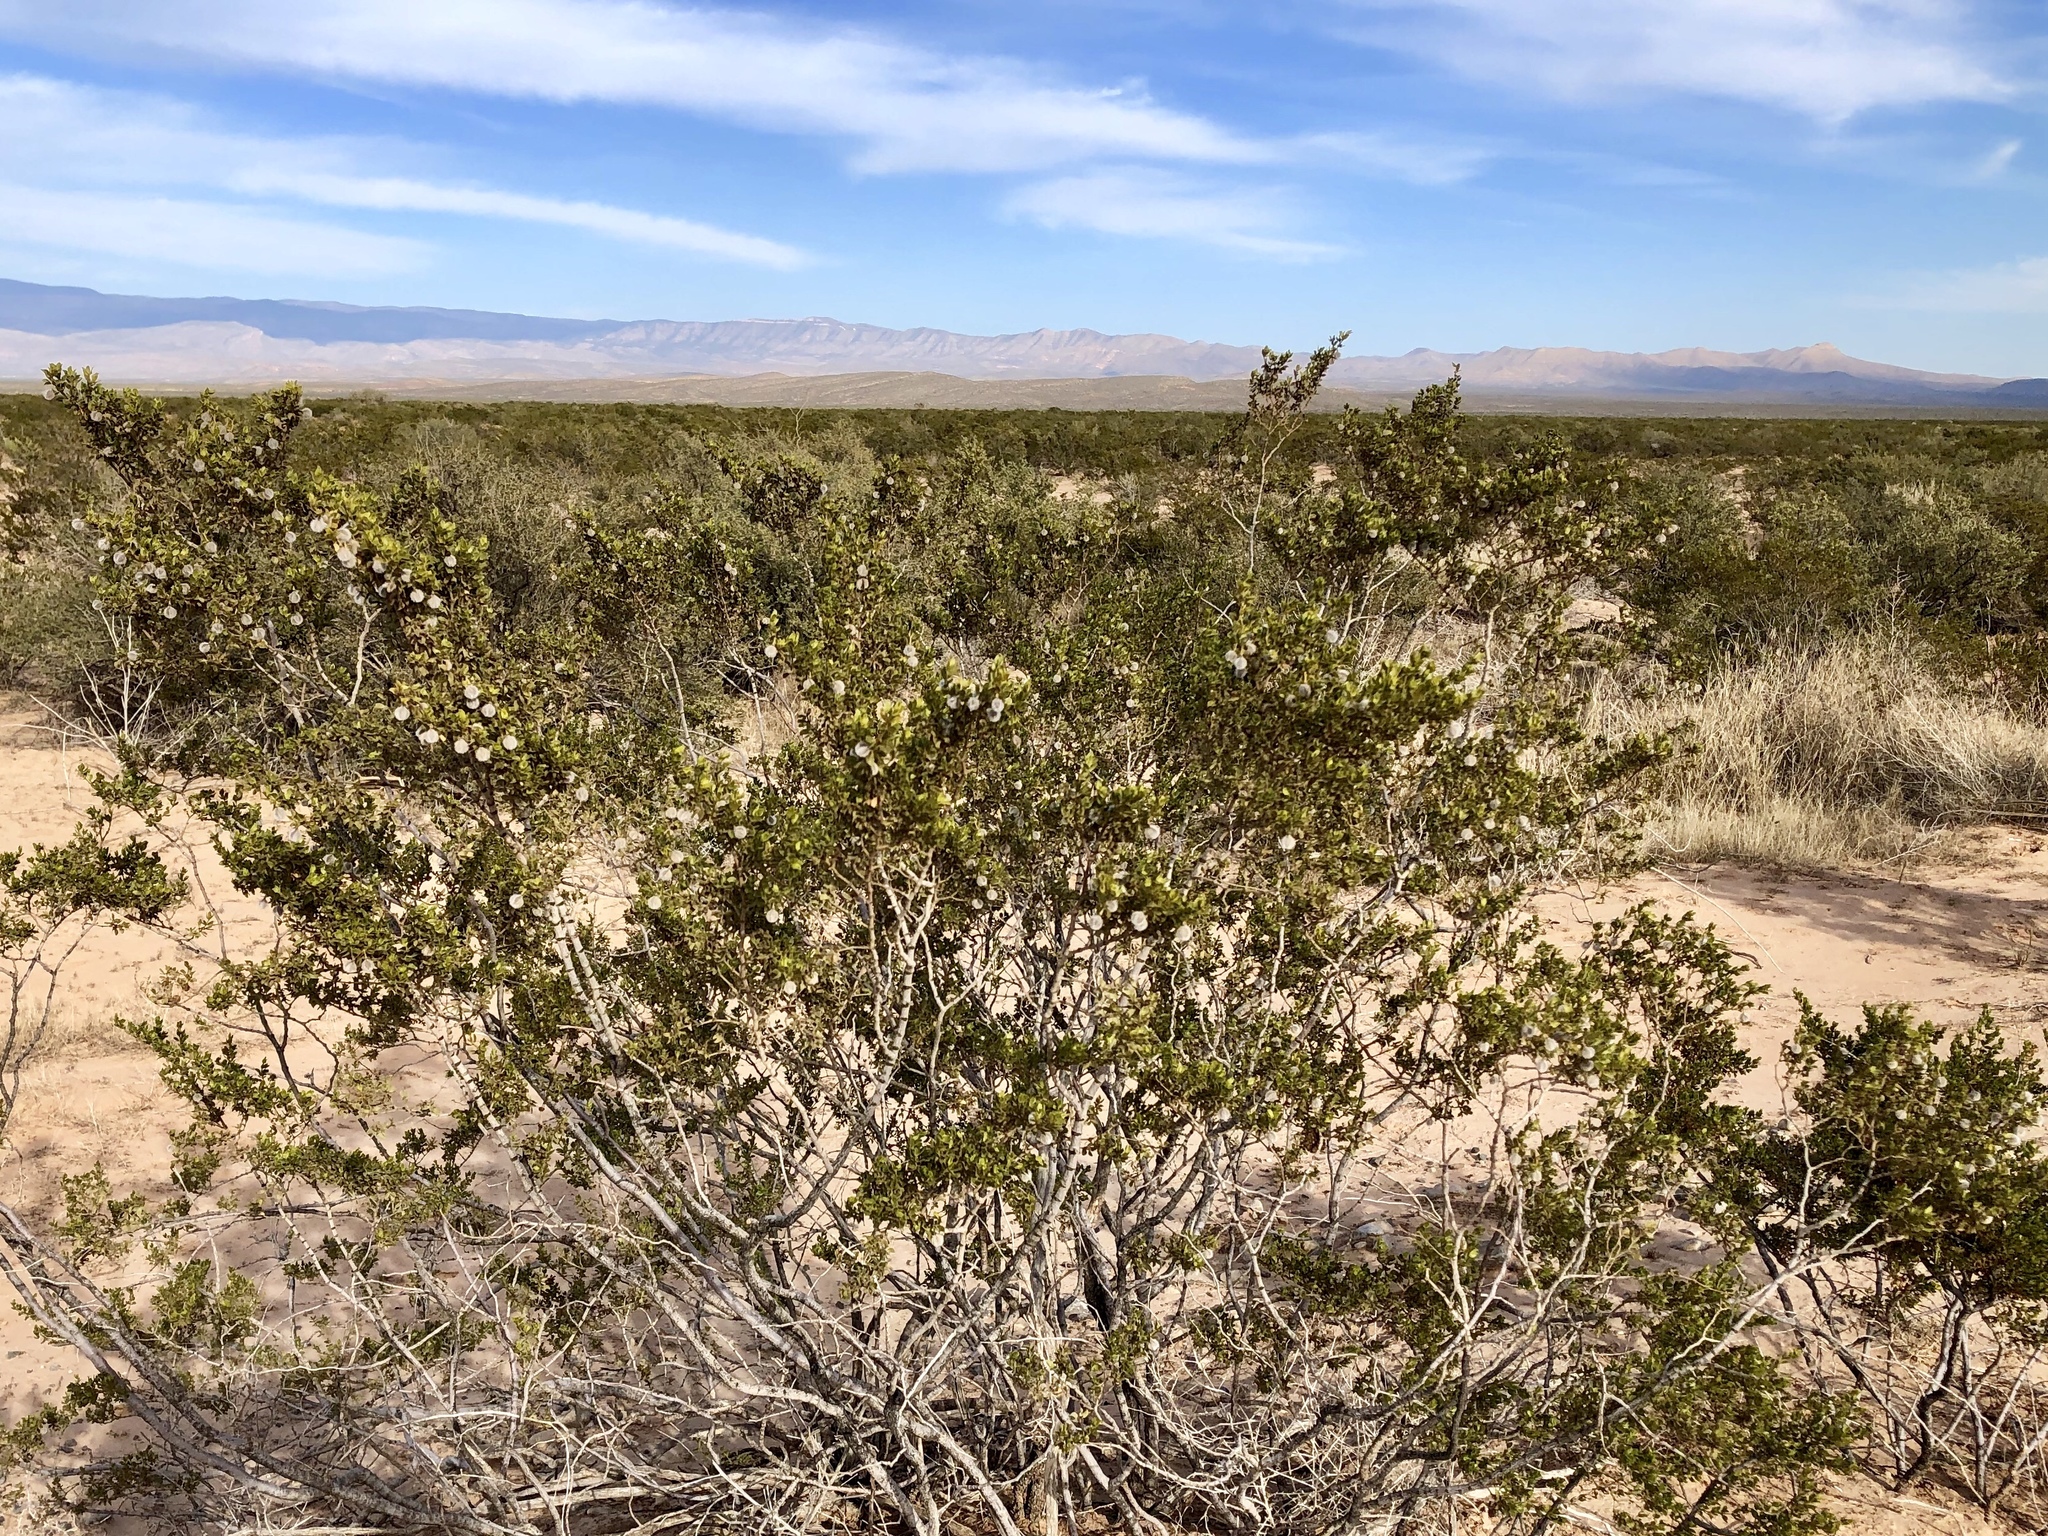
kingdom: Plantae
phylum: Tracheophyta
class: Magnoliopsida
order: Zygophyllales
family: Zygophyllaceae
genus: Larrea
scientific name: Larrea tridentata
